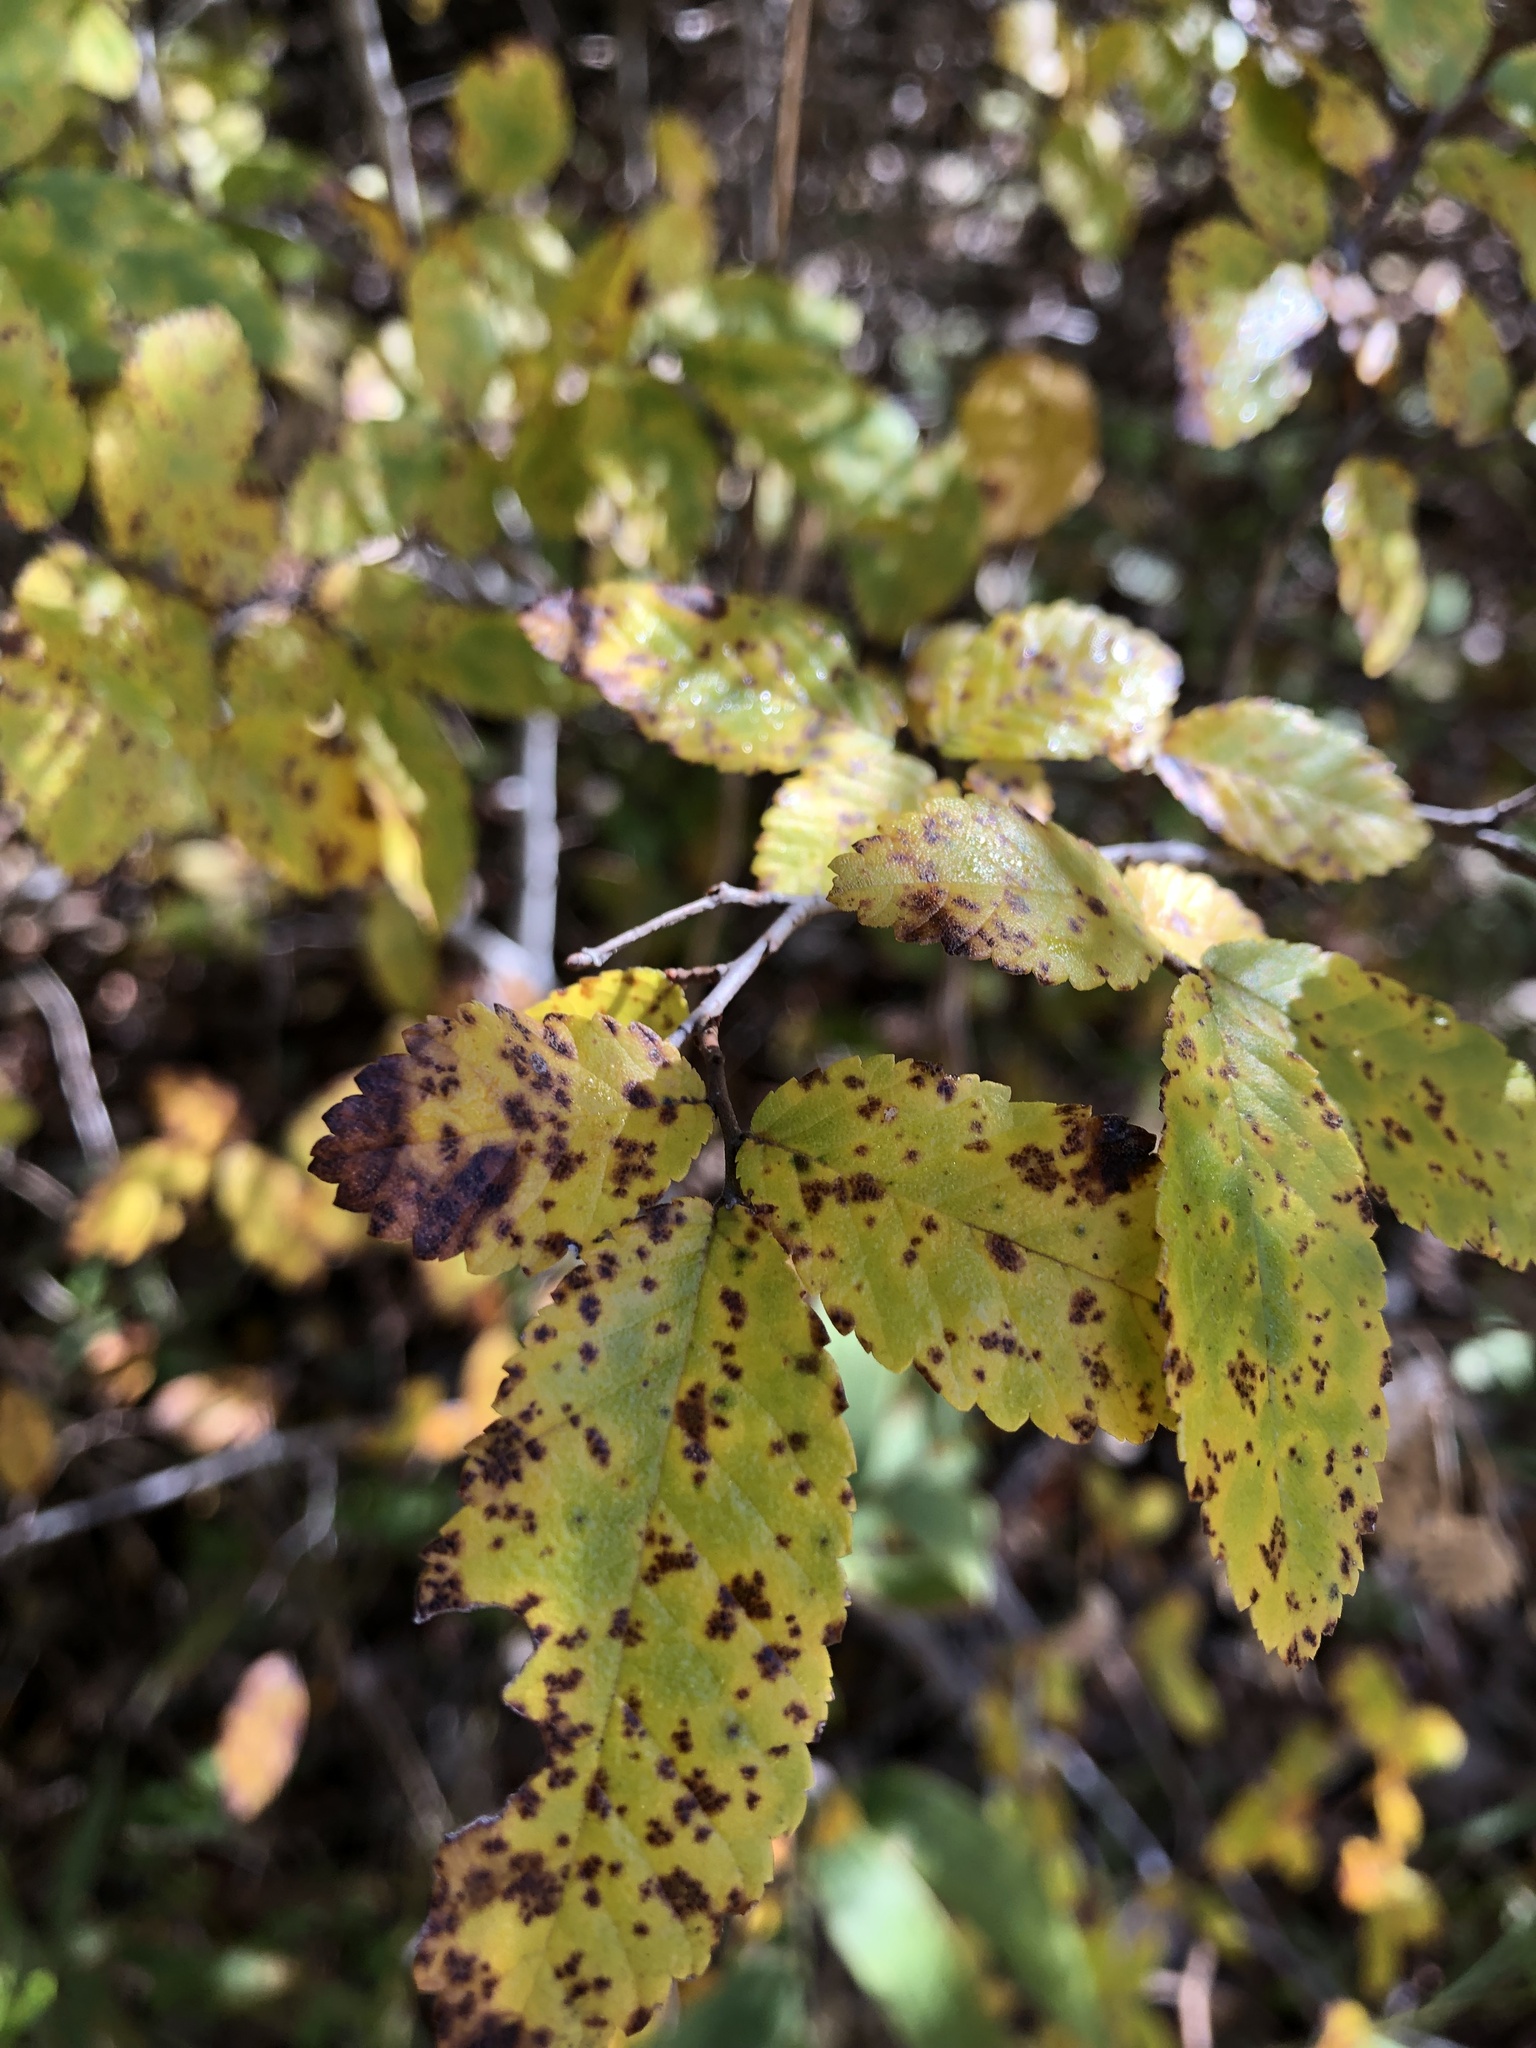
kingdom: Plantae
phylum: Tracheophyta
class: Magnoliopsida
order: Rosales
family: Ulmaceae
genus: Ulmus
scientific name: Ulmus crassifolia
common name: Basket elm
